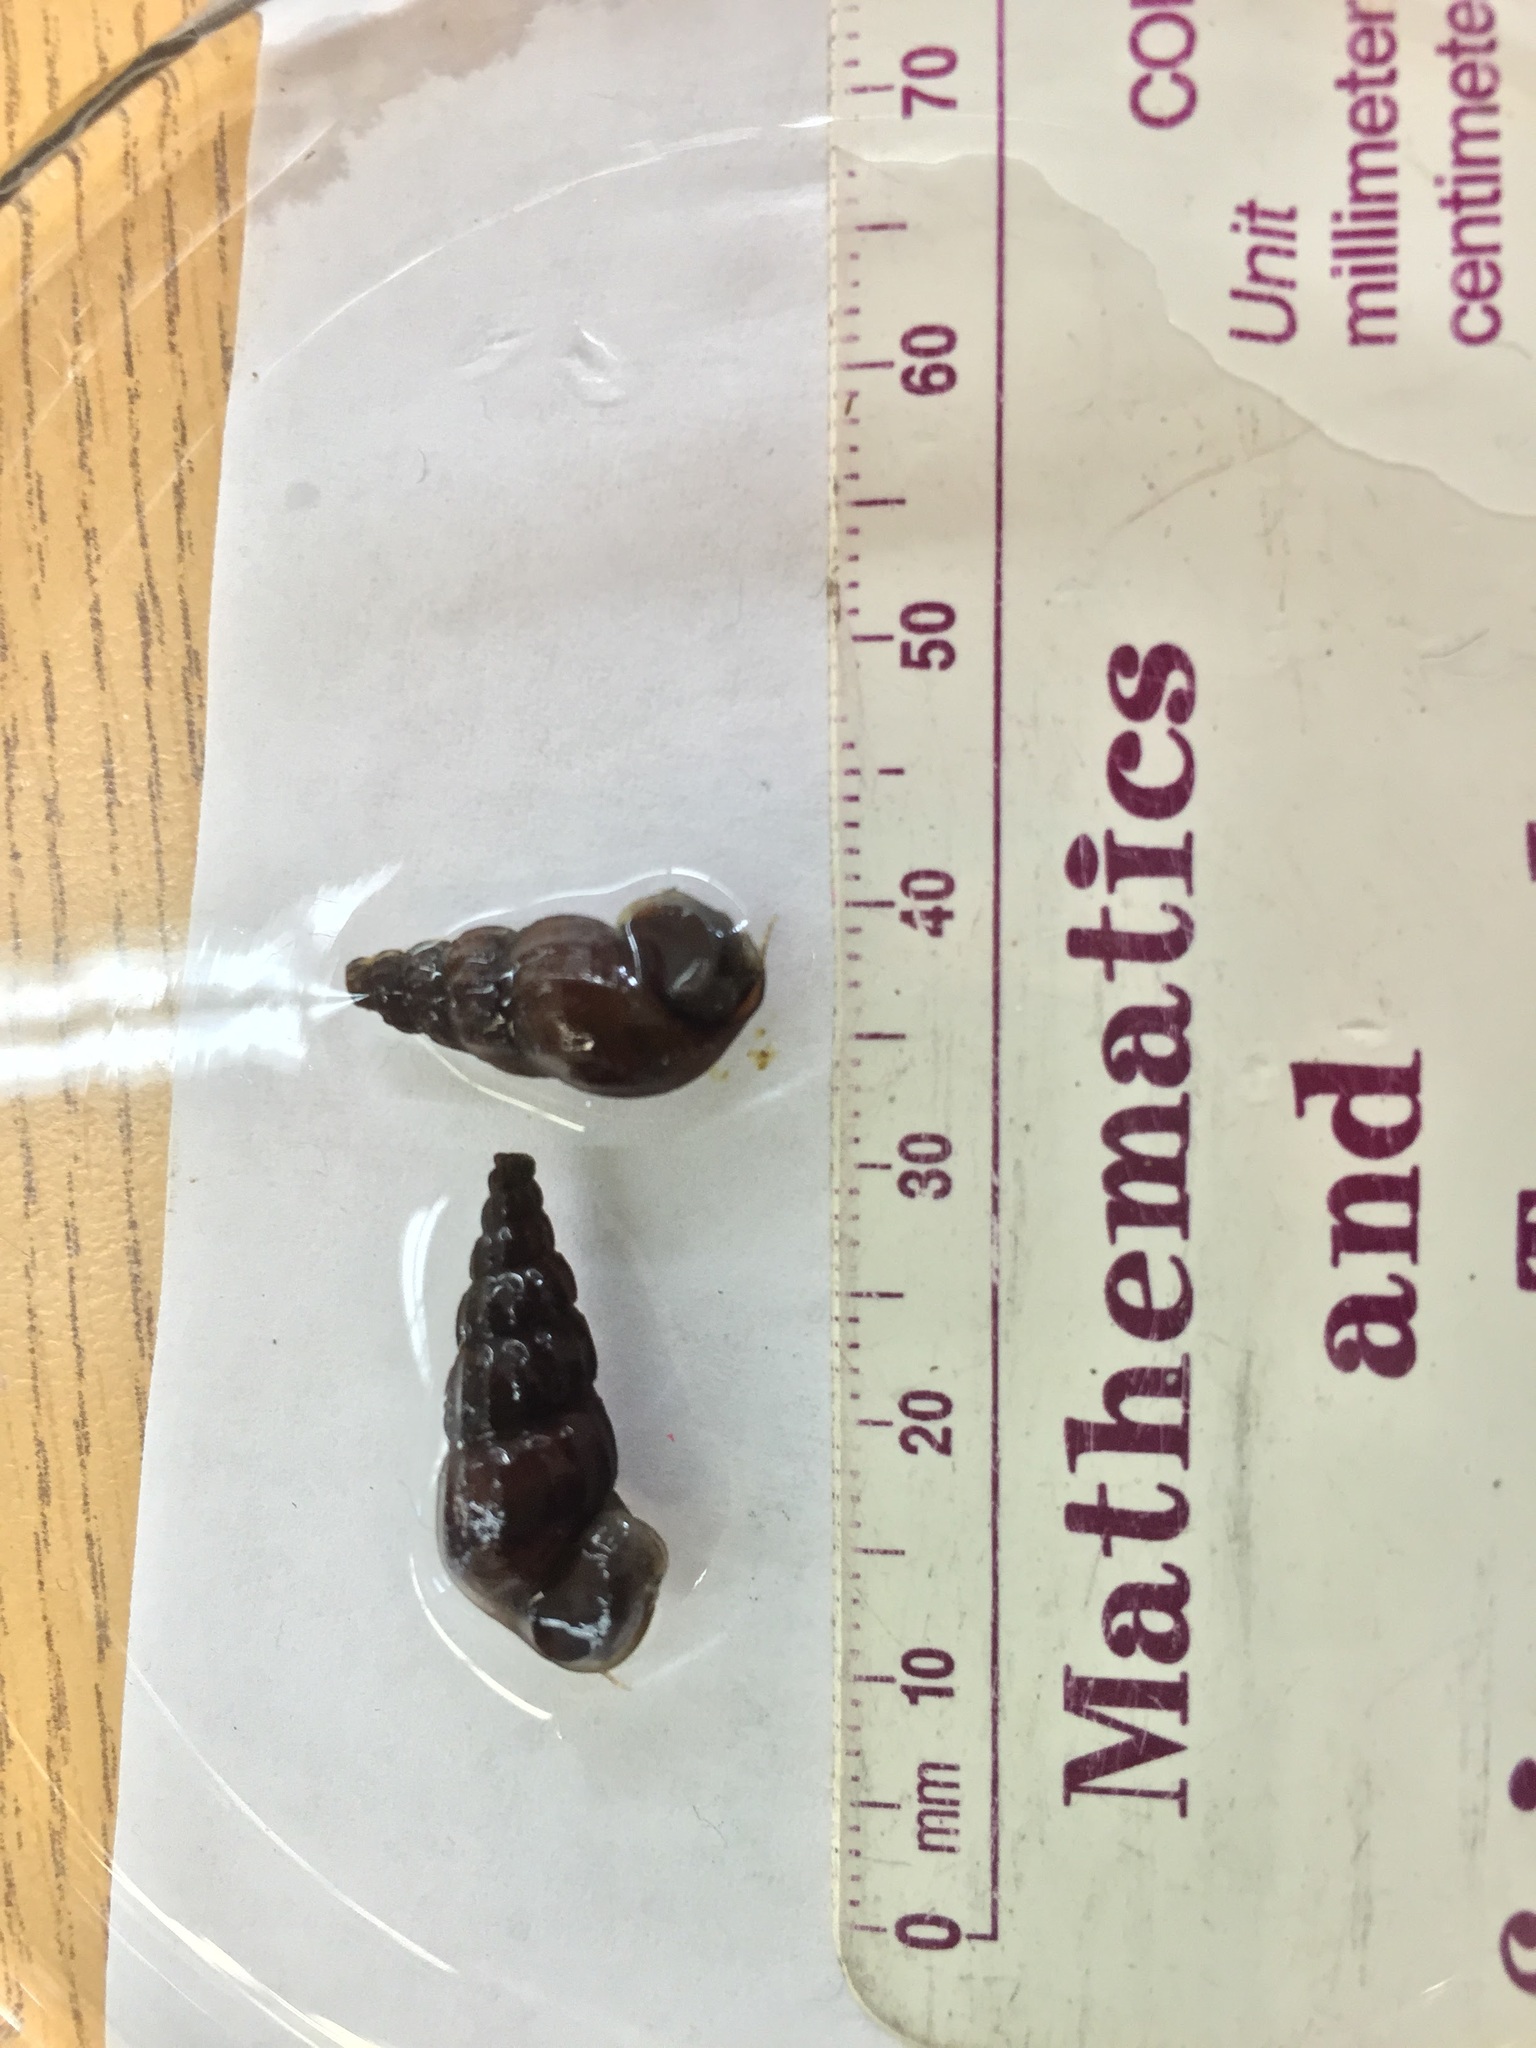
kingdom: Animalia
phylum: Mollusca
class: Gastropoda
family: Semisulcospiridae
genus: Juga
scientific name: Juga plicifera
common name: Pleated juga
